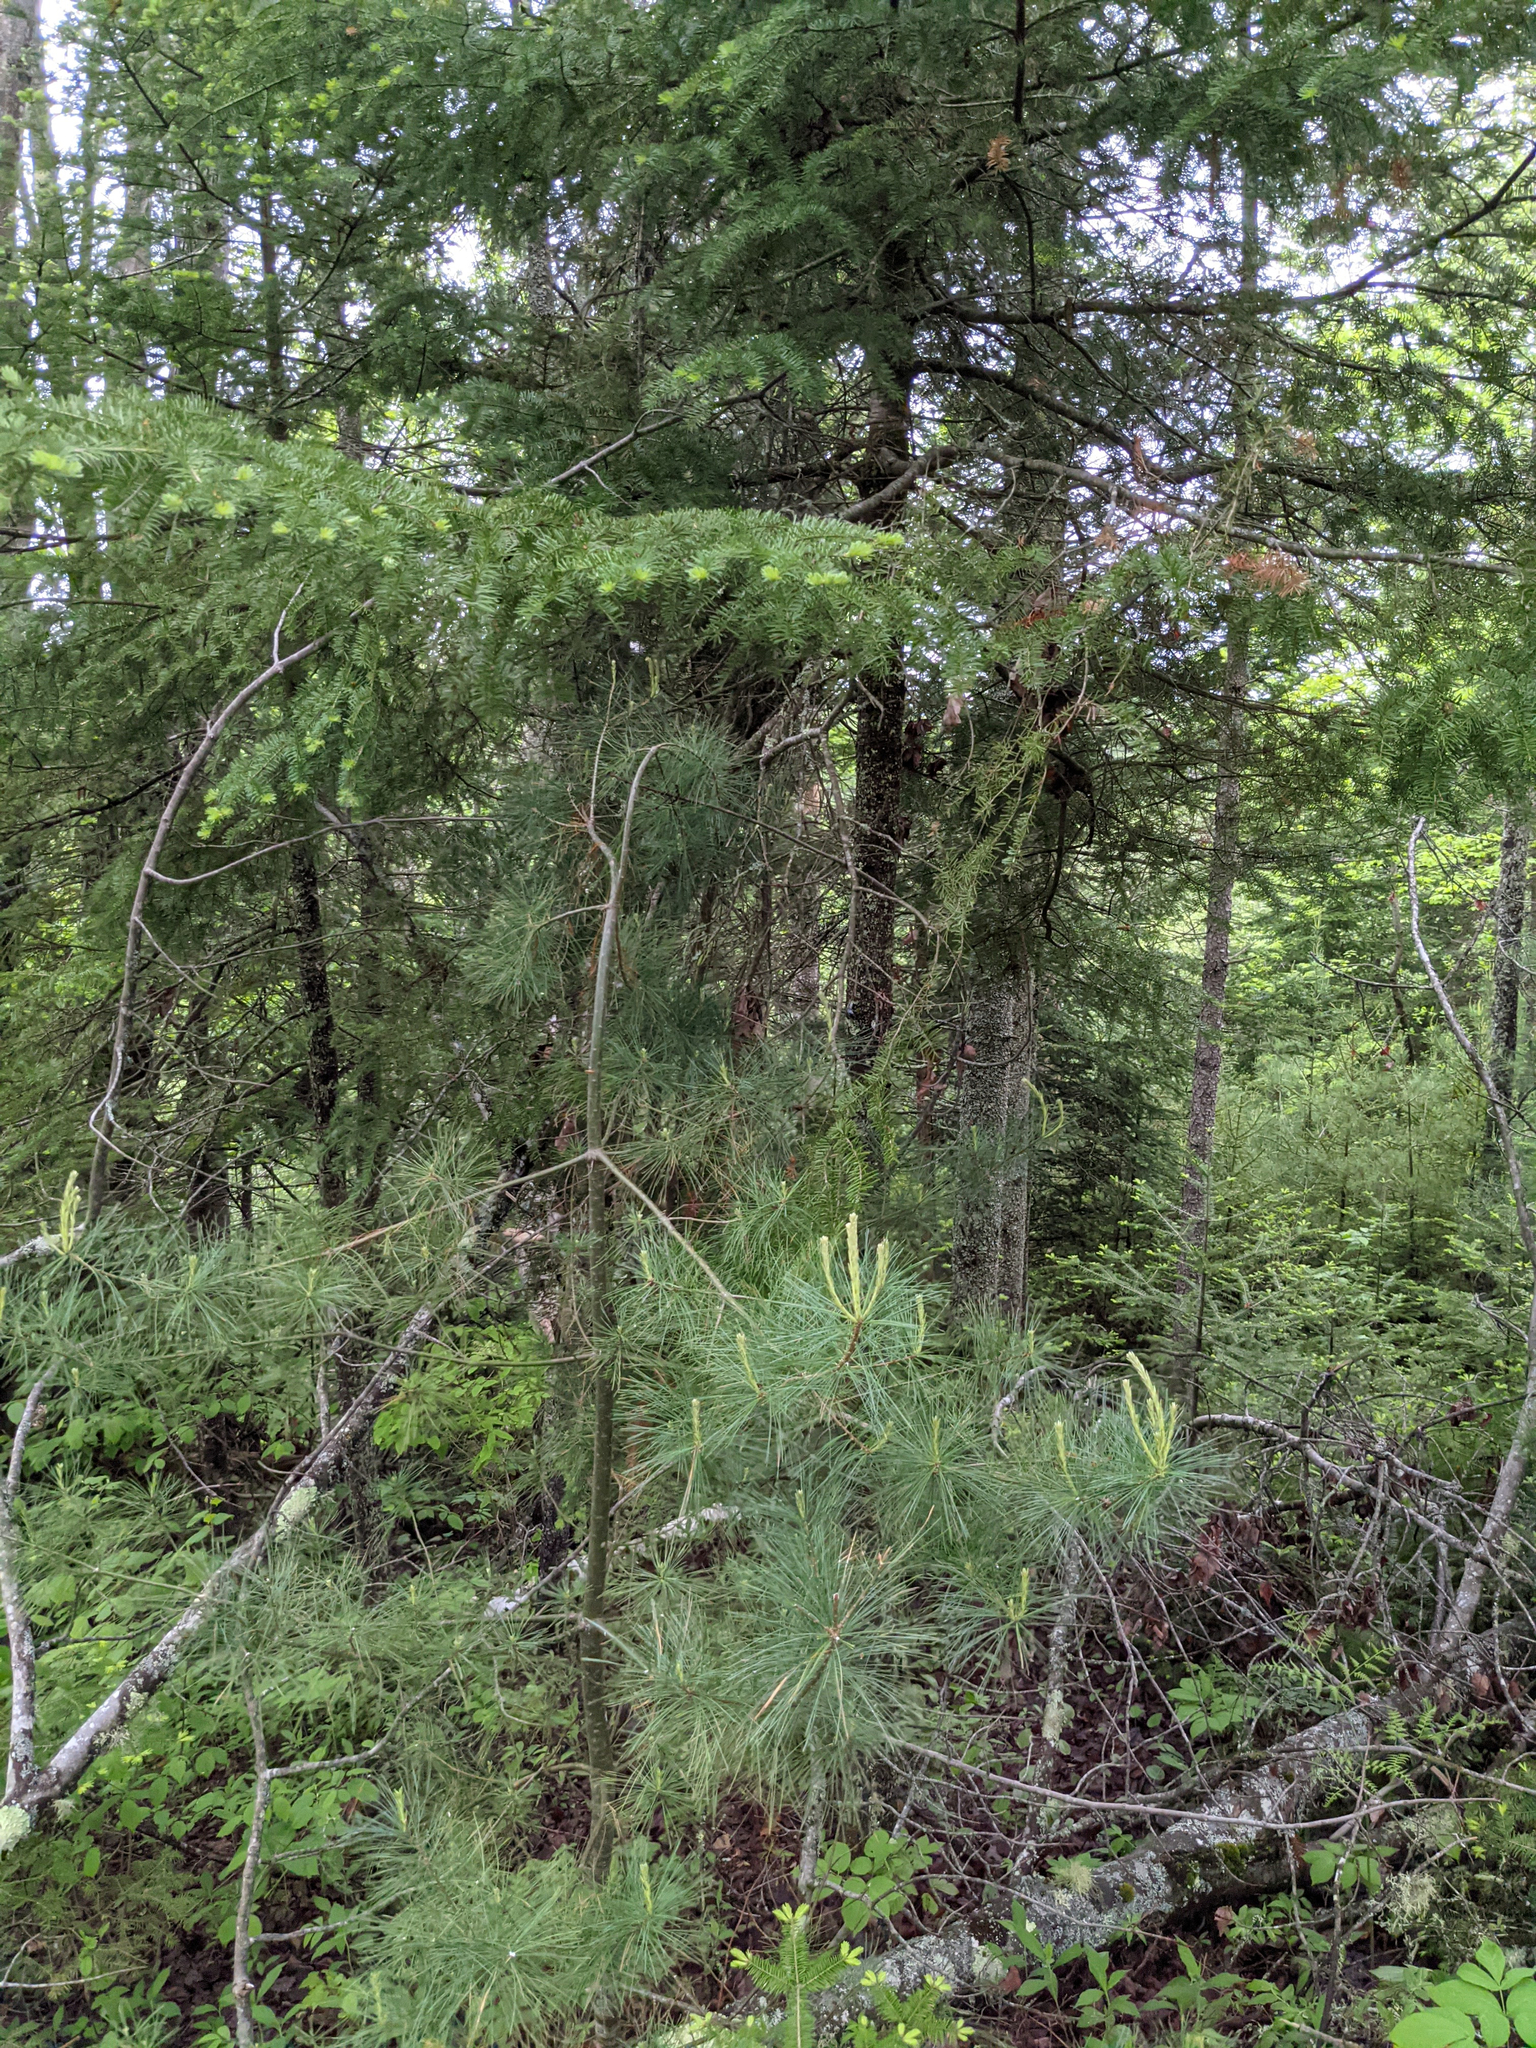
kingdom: Plantae
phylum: Tracheophyta
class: Pinopsida
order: Pinales
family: Pinaceae
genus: Pinus
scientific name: Pinus strobus
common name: Weymouth pine
